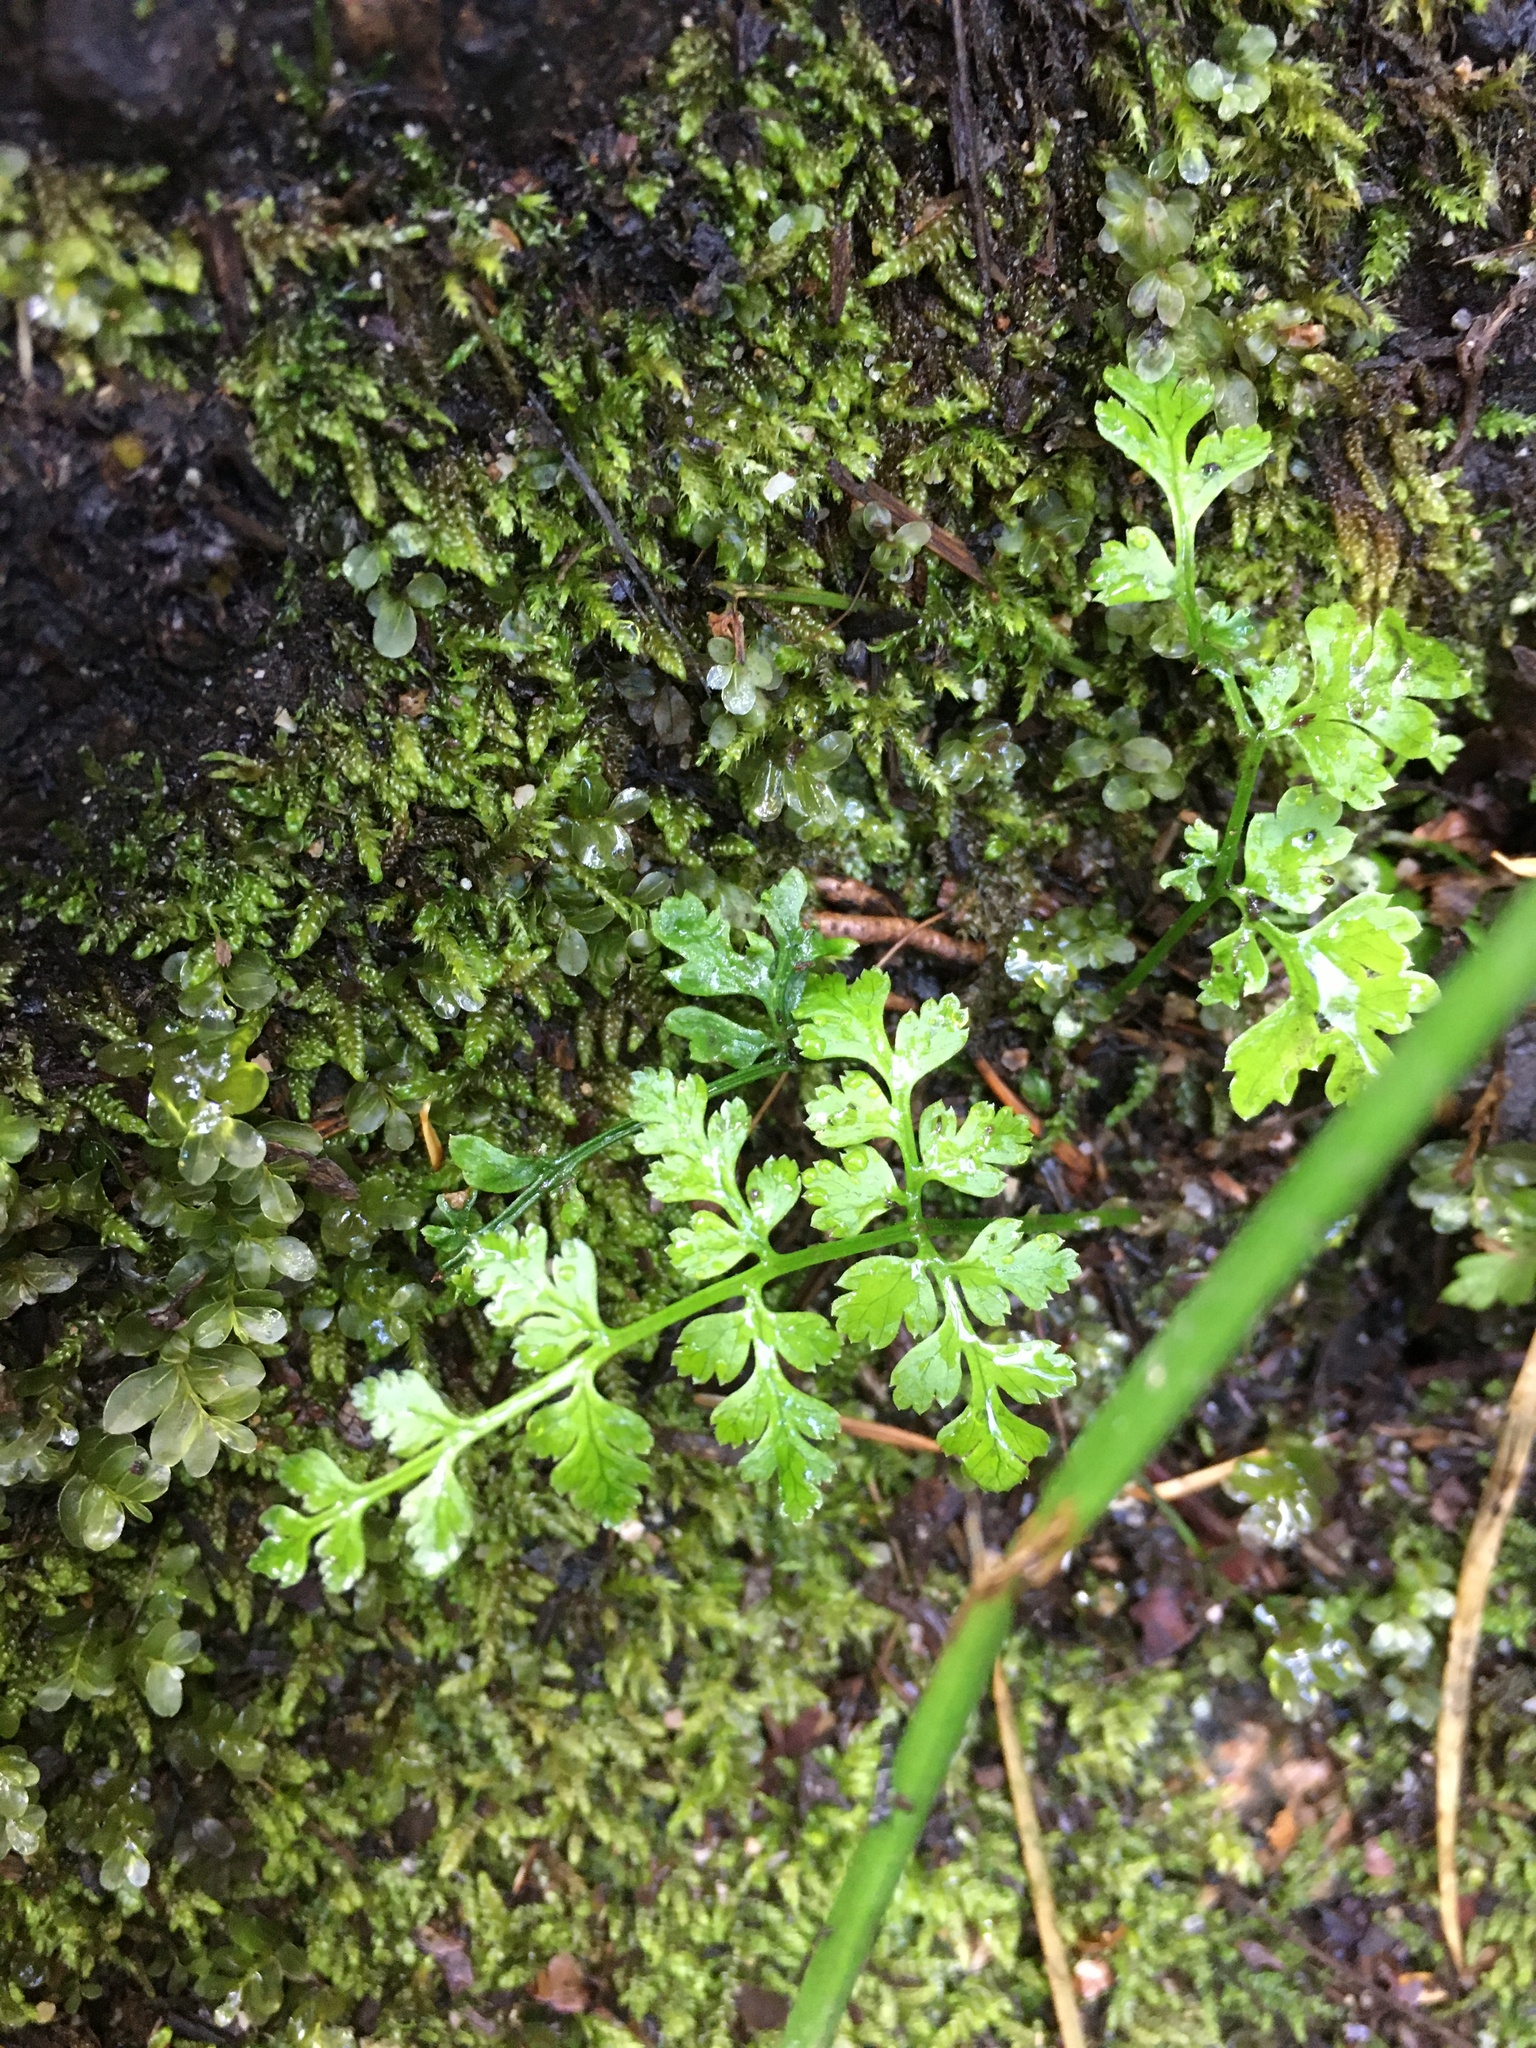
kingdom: Plantae
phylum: Tracheophyta
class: Polypodiopsida
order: Polypodiales
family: Dryopteridaceae
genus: Dryopteris
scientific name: Dryopteris expansa
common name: Northern buckler fern
